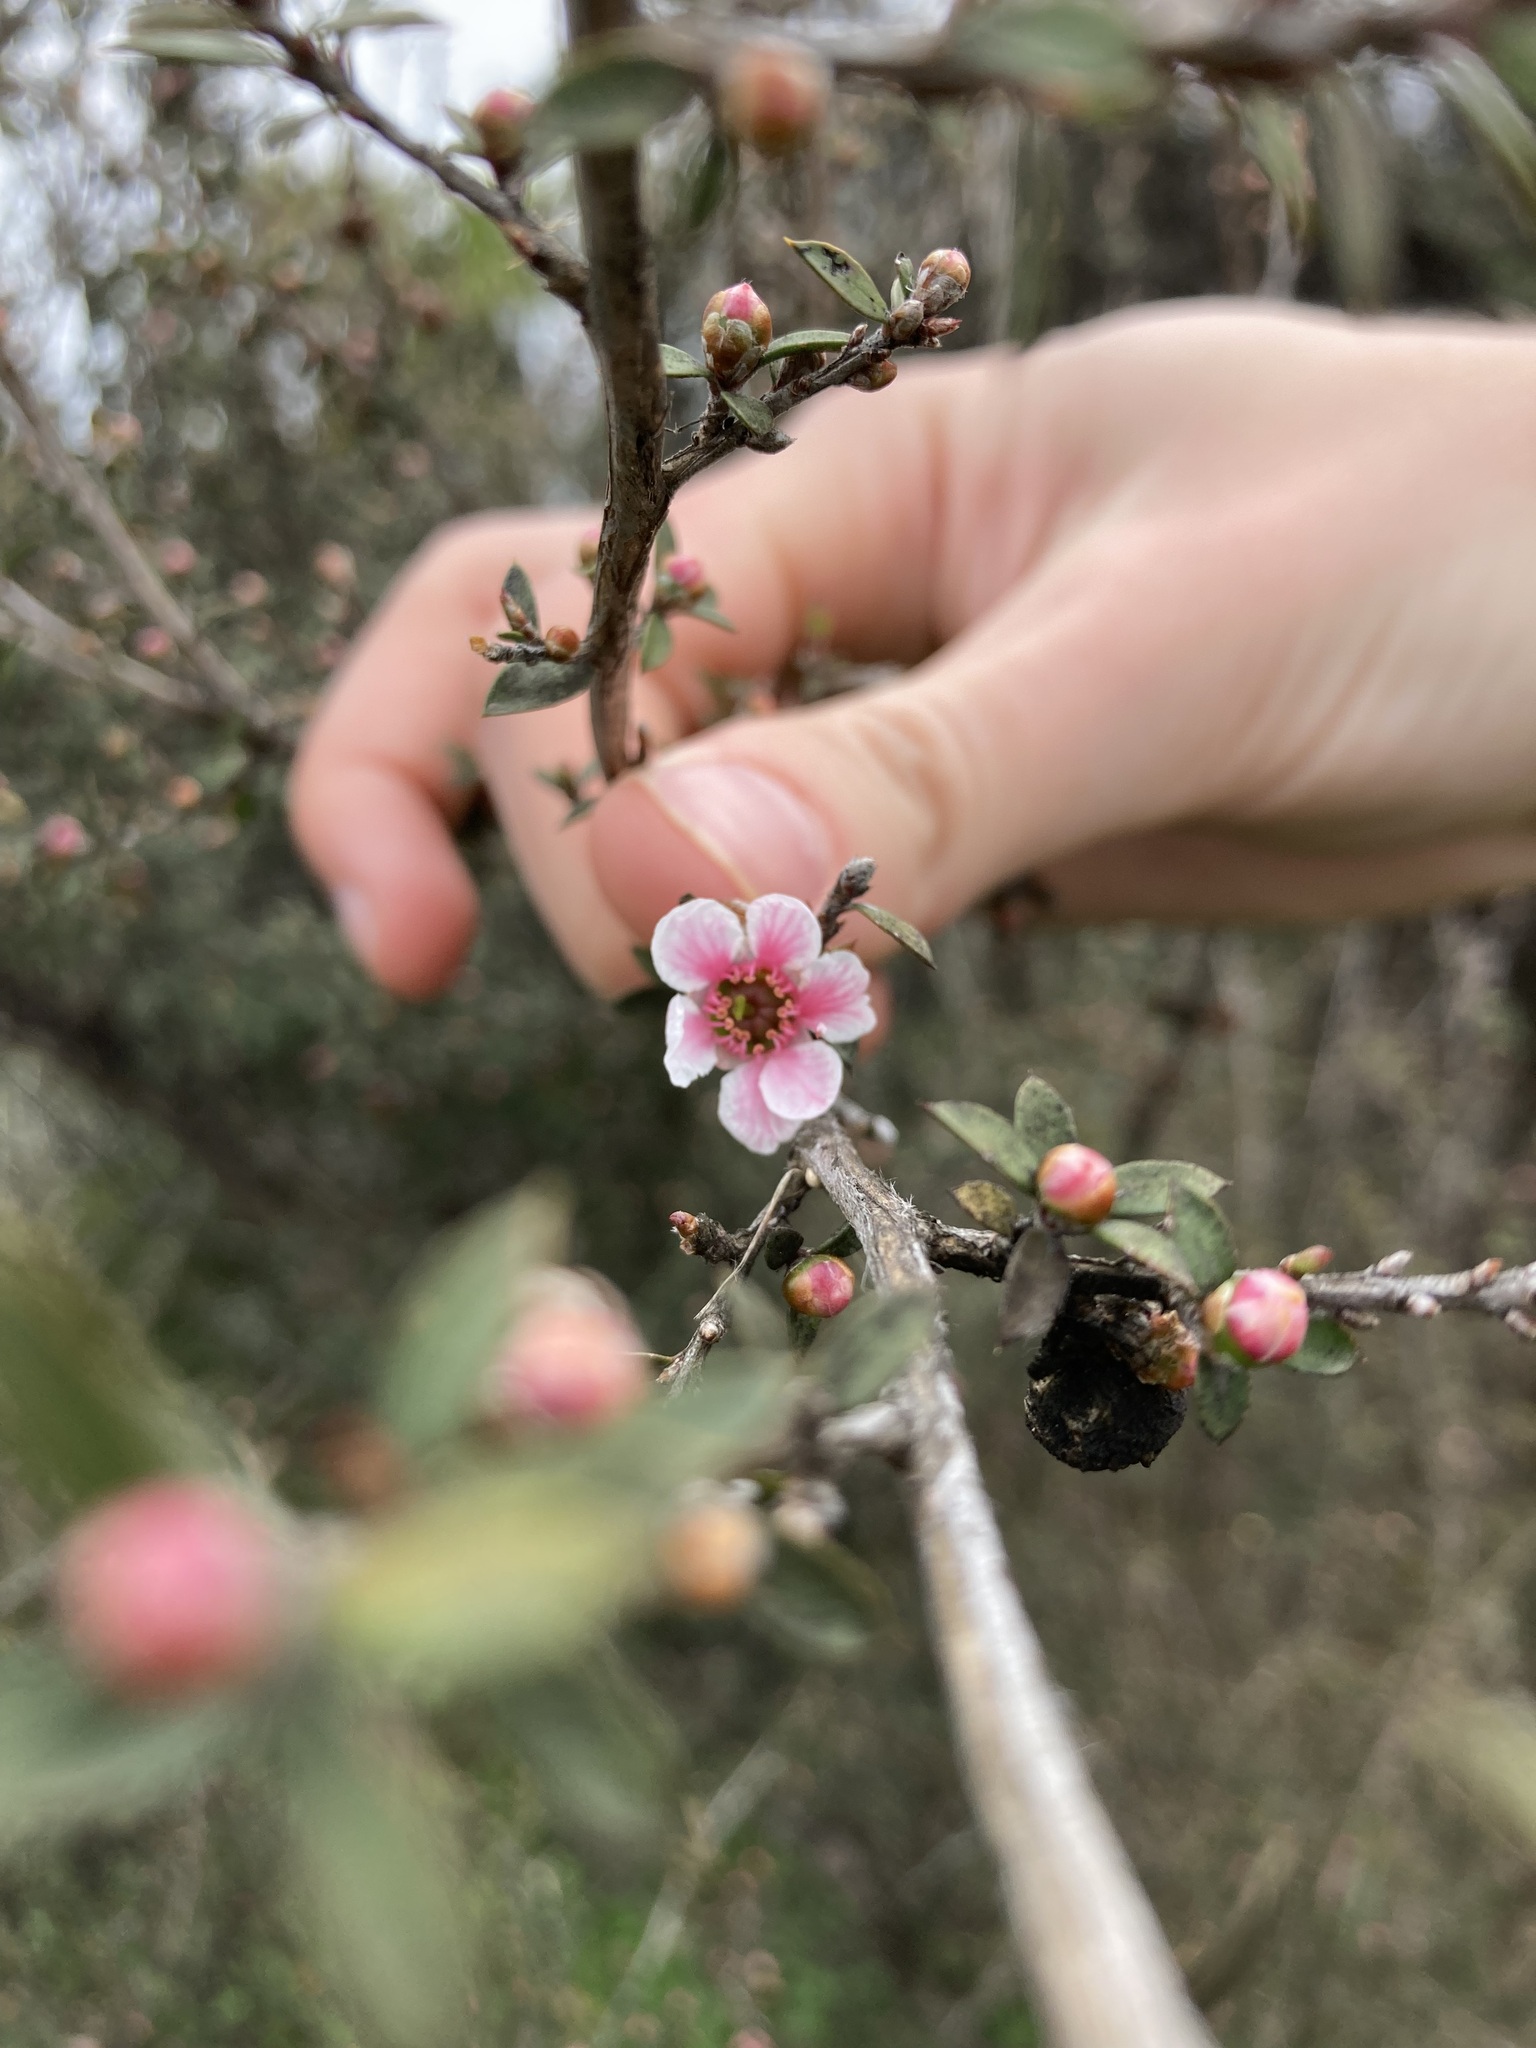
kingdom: Plantae
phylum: Tracheophyta
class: Magnoliopsida
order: Myrtales
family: Myrtaceae
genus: Leptospermum
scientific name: Leptospermum scoparium
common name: Broom tea-tree
